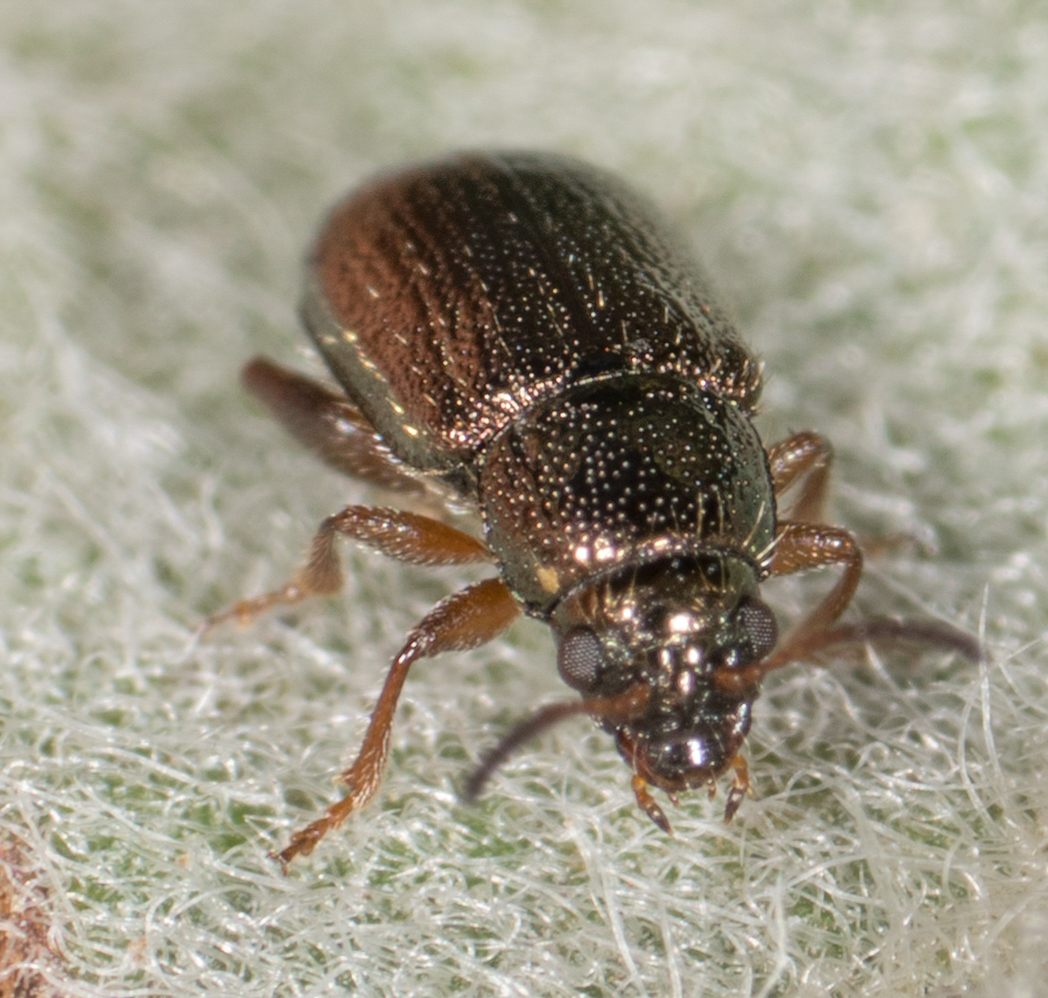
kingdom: Animalia
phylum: Arthropoda
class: Insecta
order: Coleoptera
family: Chrysomelidae
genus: Hemiglyptus
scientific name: Hemiglyptus basalis
